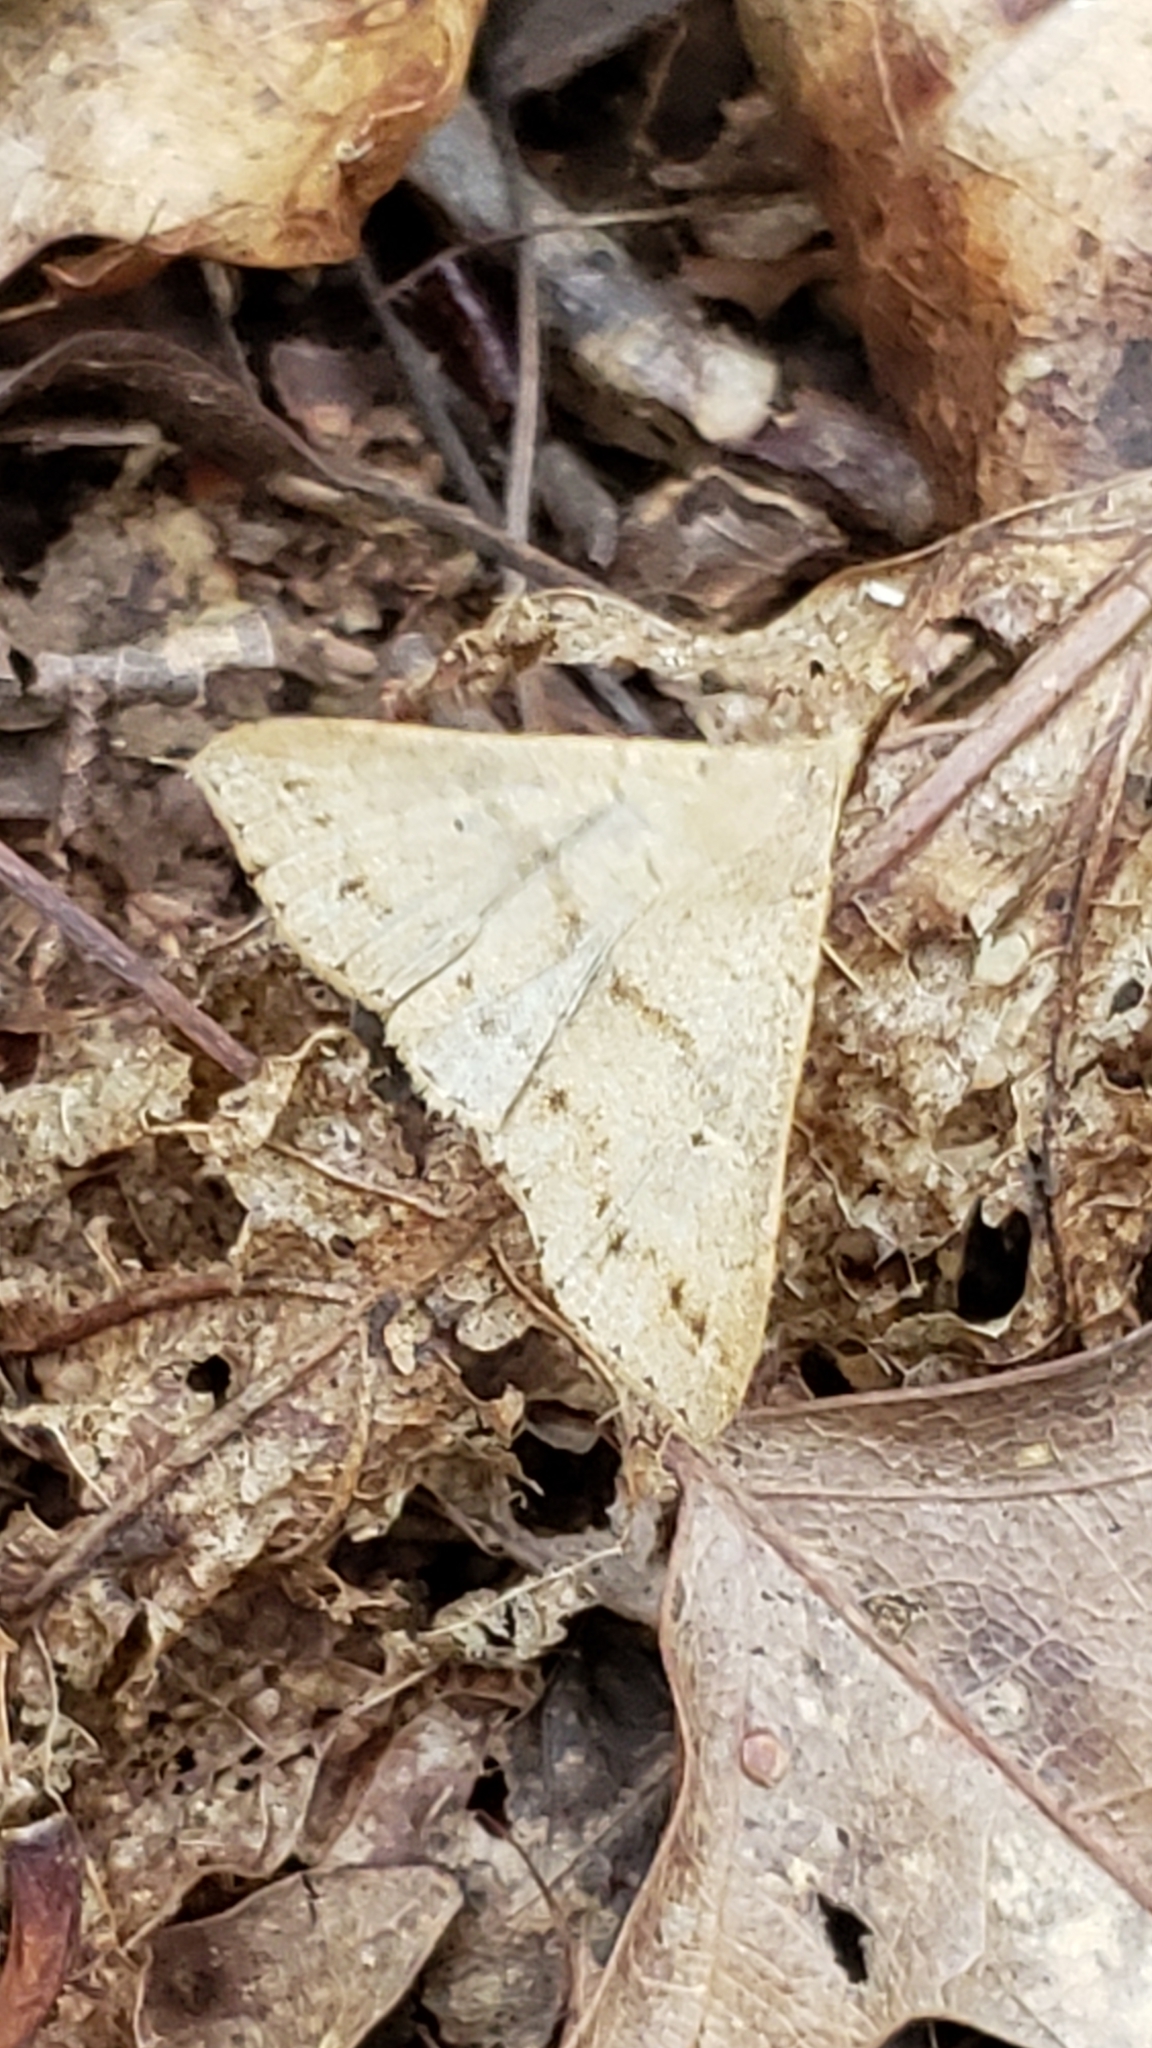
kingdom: Animalia
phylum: Arthropoda
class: Insecta
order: Lepidoptera
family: Erebidae
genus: Renia
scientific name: Renia adspergillus
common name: Speckled renia moth
